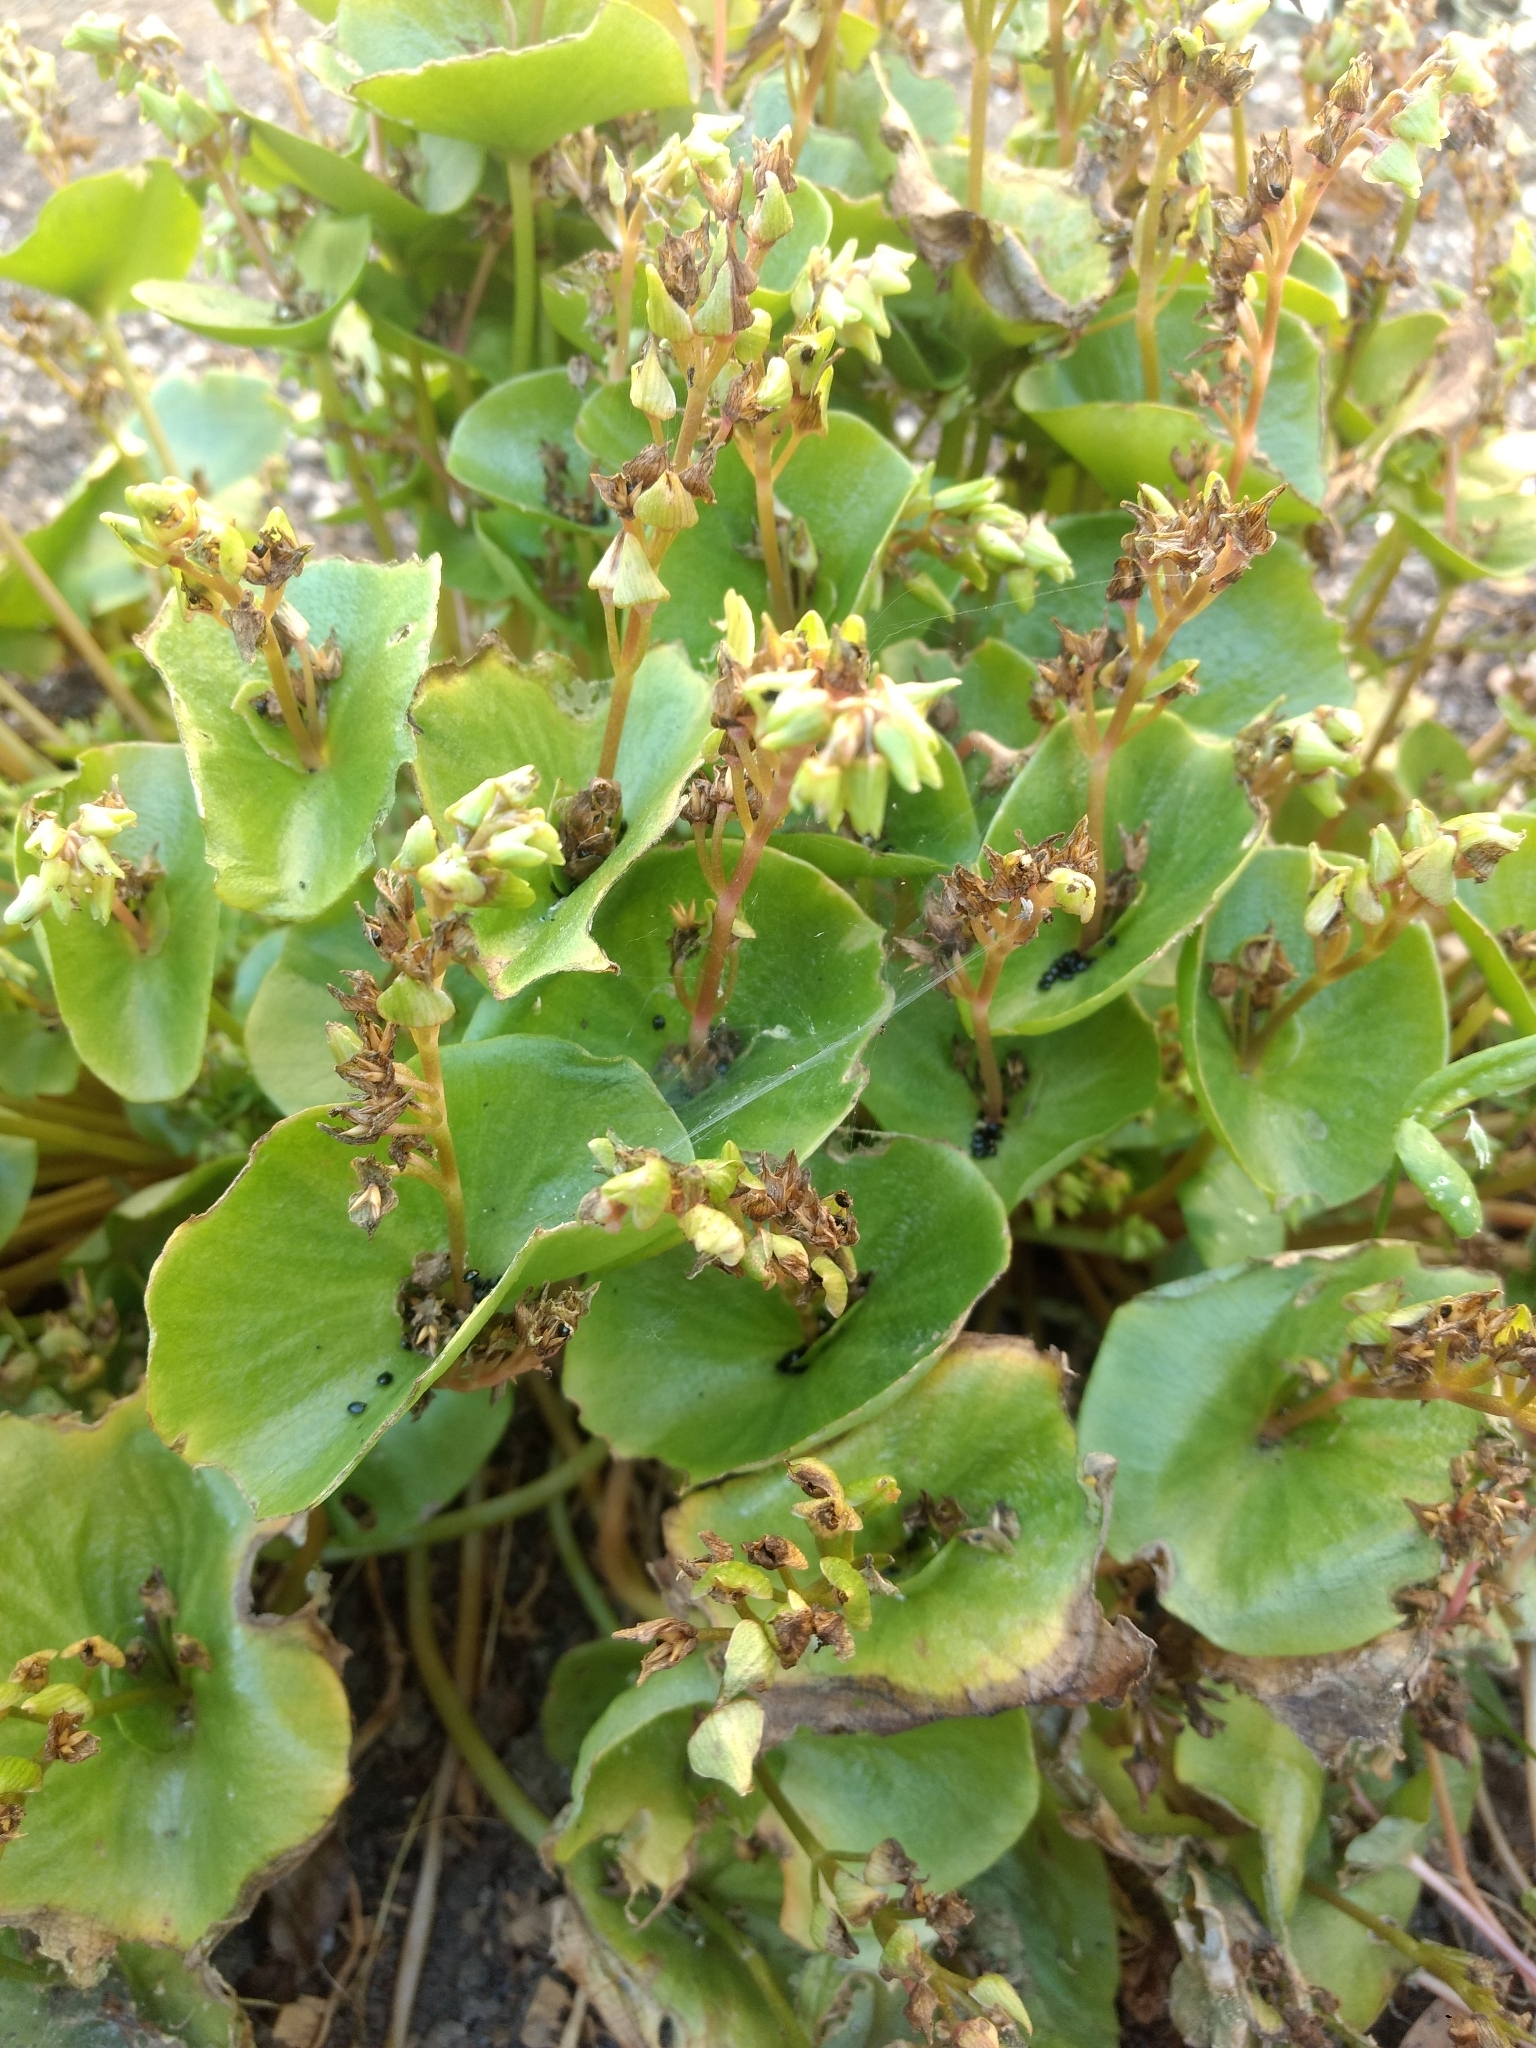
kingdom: Plantae
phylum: Tracheophyta
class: Magnoliopsida
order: Caryophyllales
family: Montiaceae
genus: Claytonia
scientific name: Claytonia perfoliata
